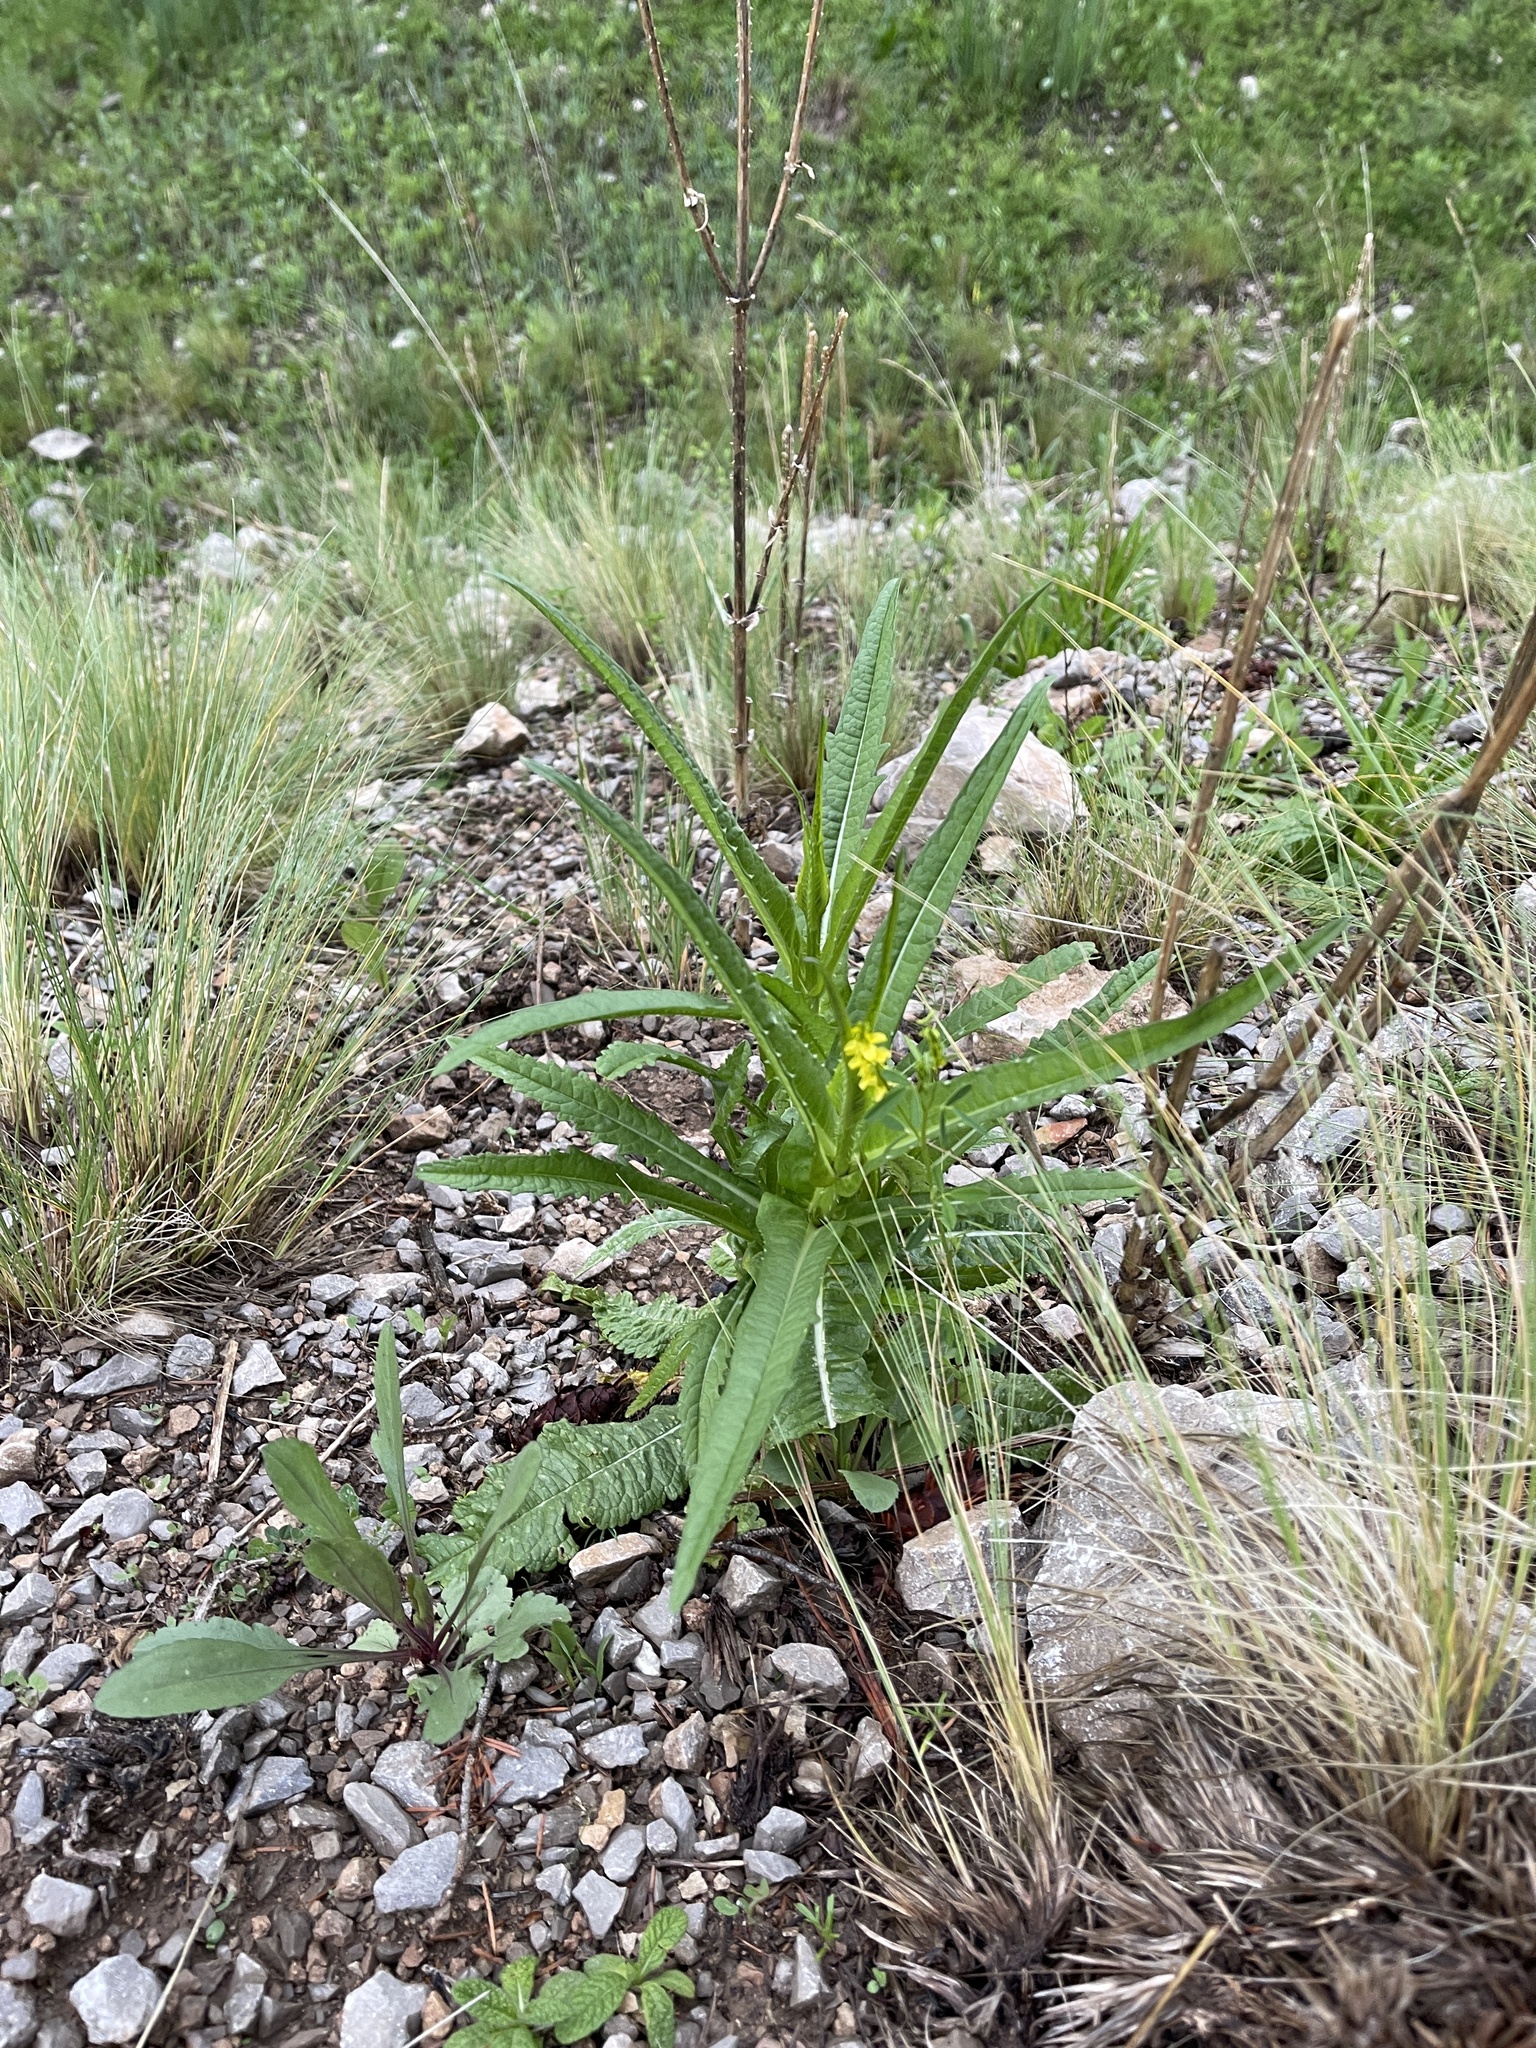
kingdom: Plantae
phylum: Tracheophyta
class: Magnoliopsida
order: Dipsacales
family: Caprifoliaceae
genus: Dipsacus
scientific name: Dipsacus fullonum
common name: Teasel
